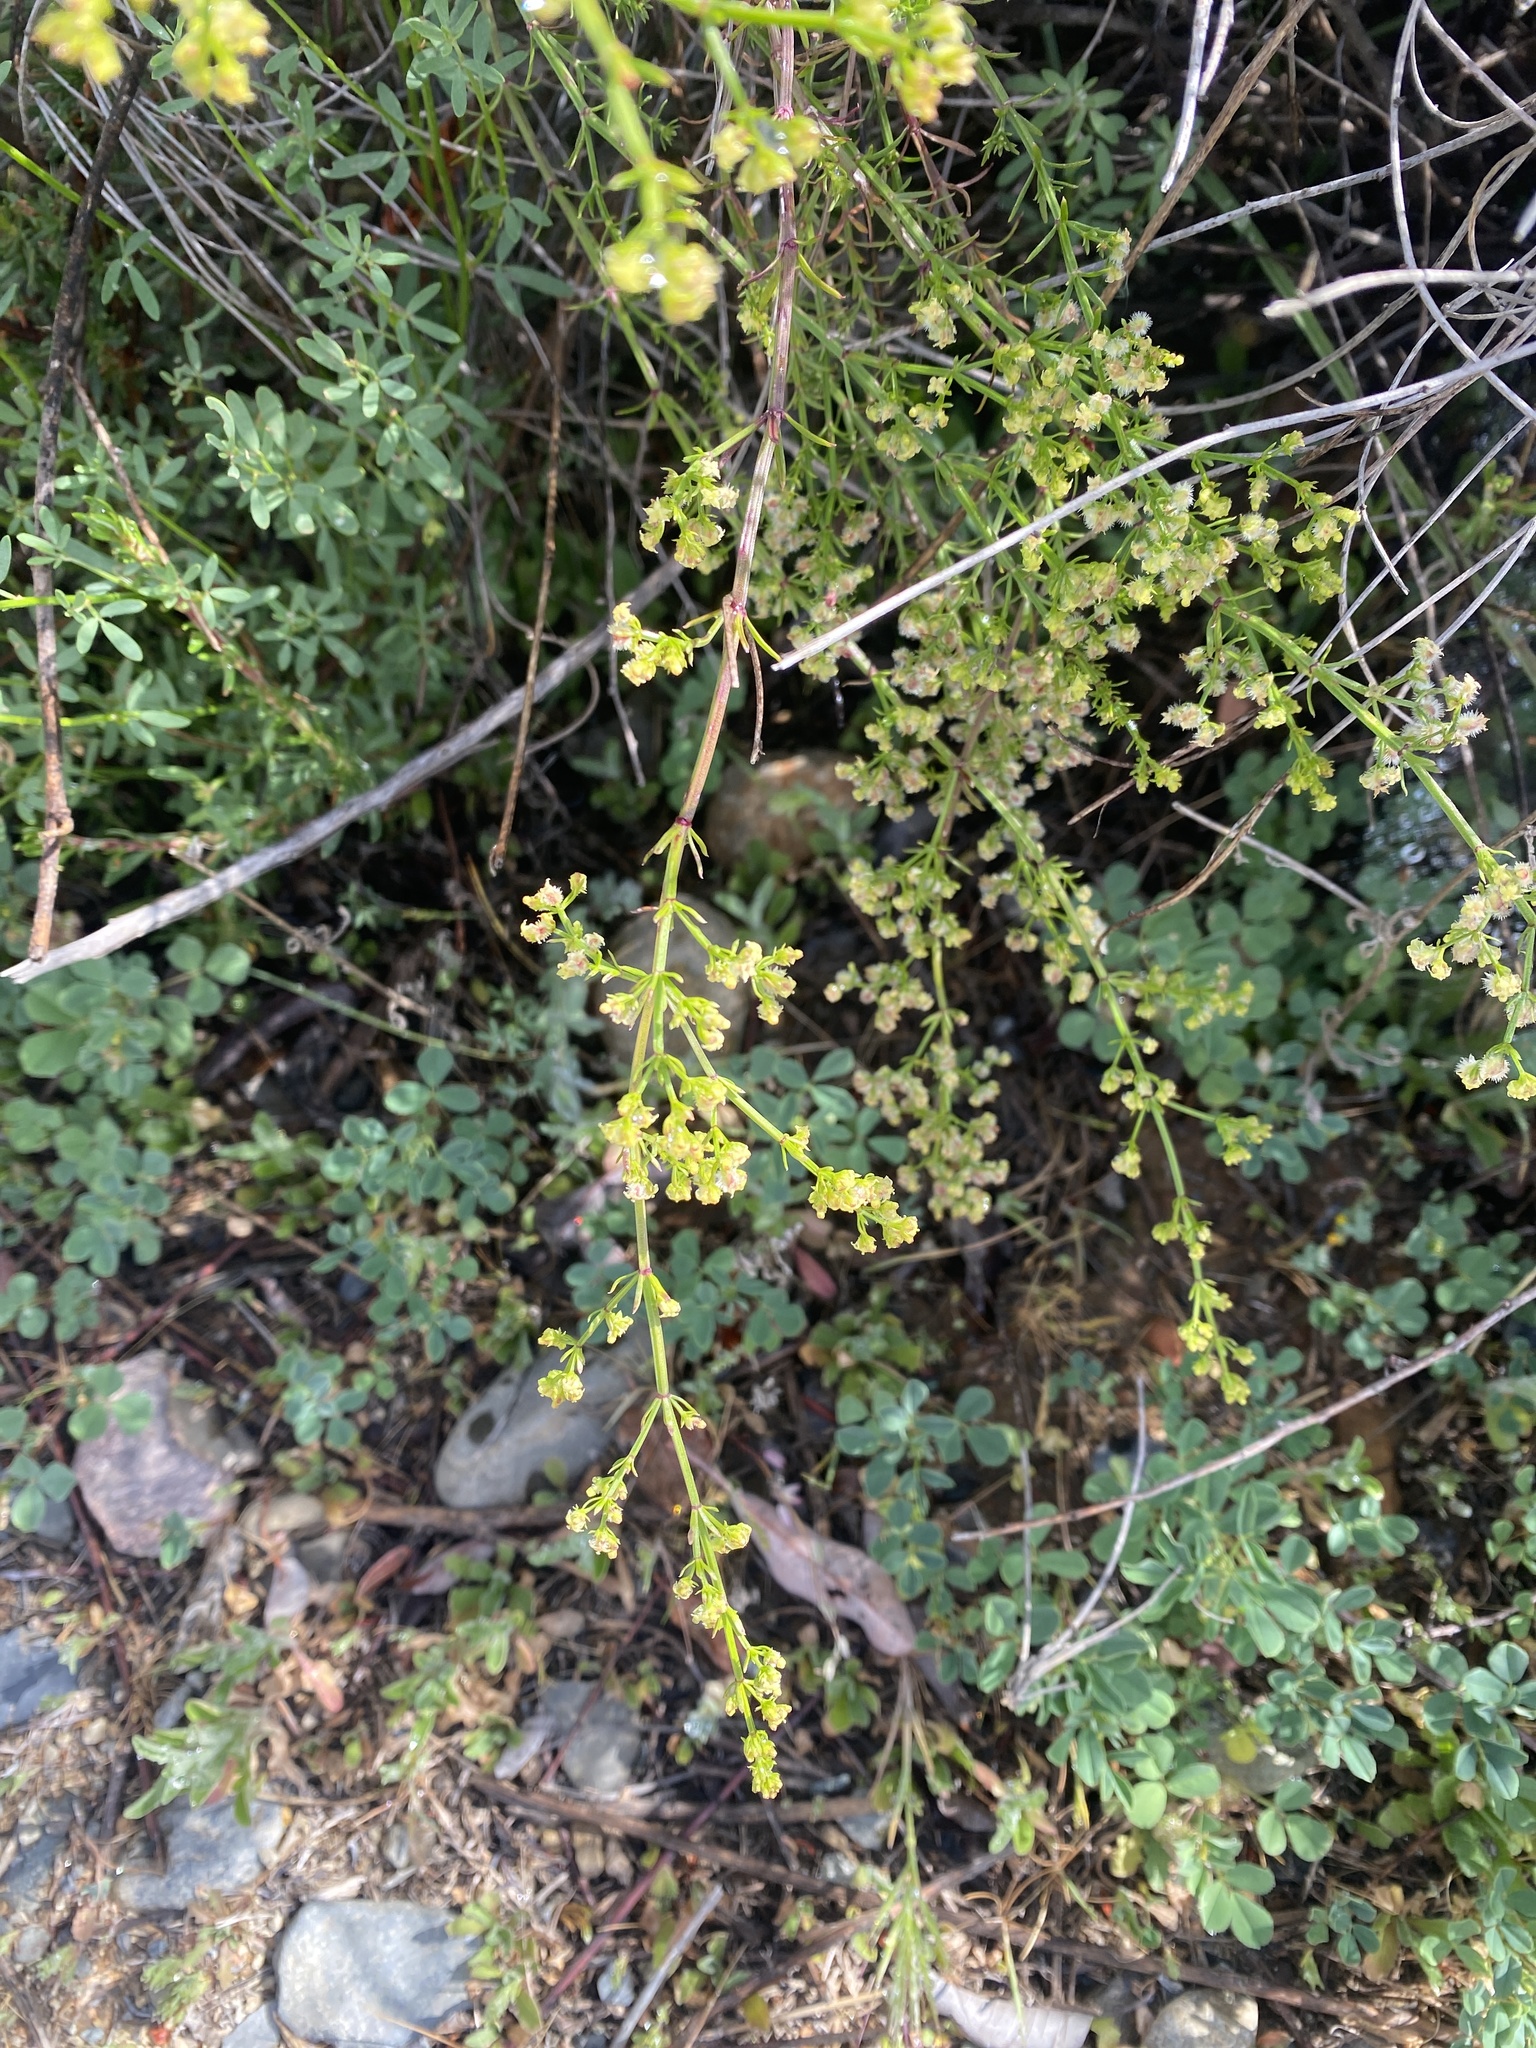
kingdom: Plantae
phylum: Tracheophyta
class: Magnoliopsida
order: Gentianales
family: Rubiaceae
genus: Galium
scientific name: Galium angustifolium
